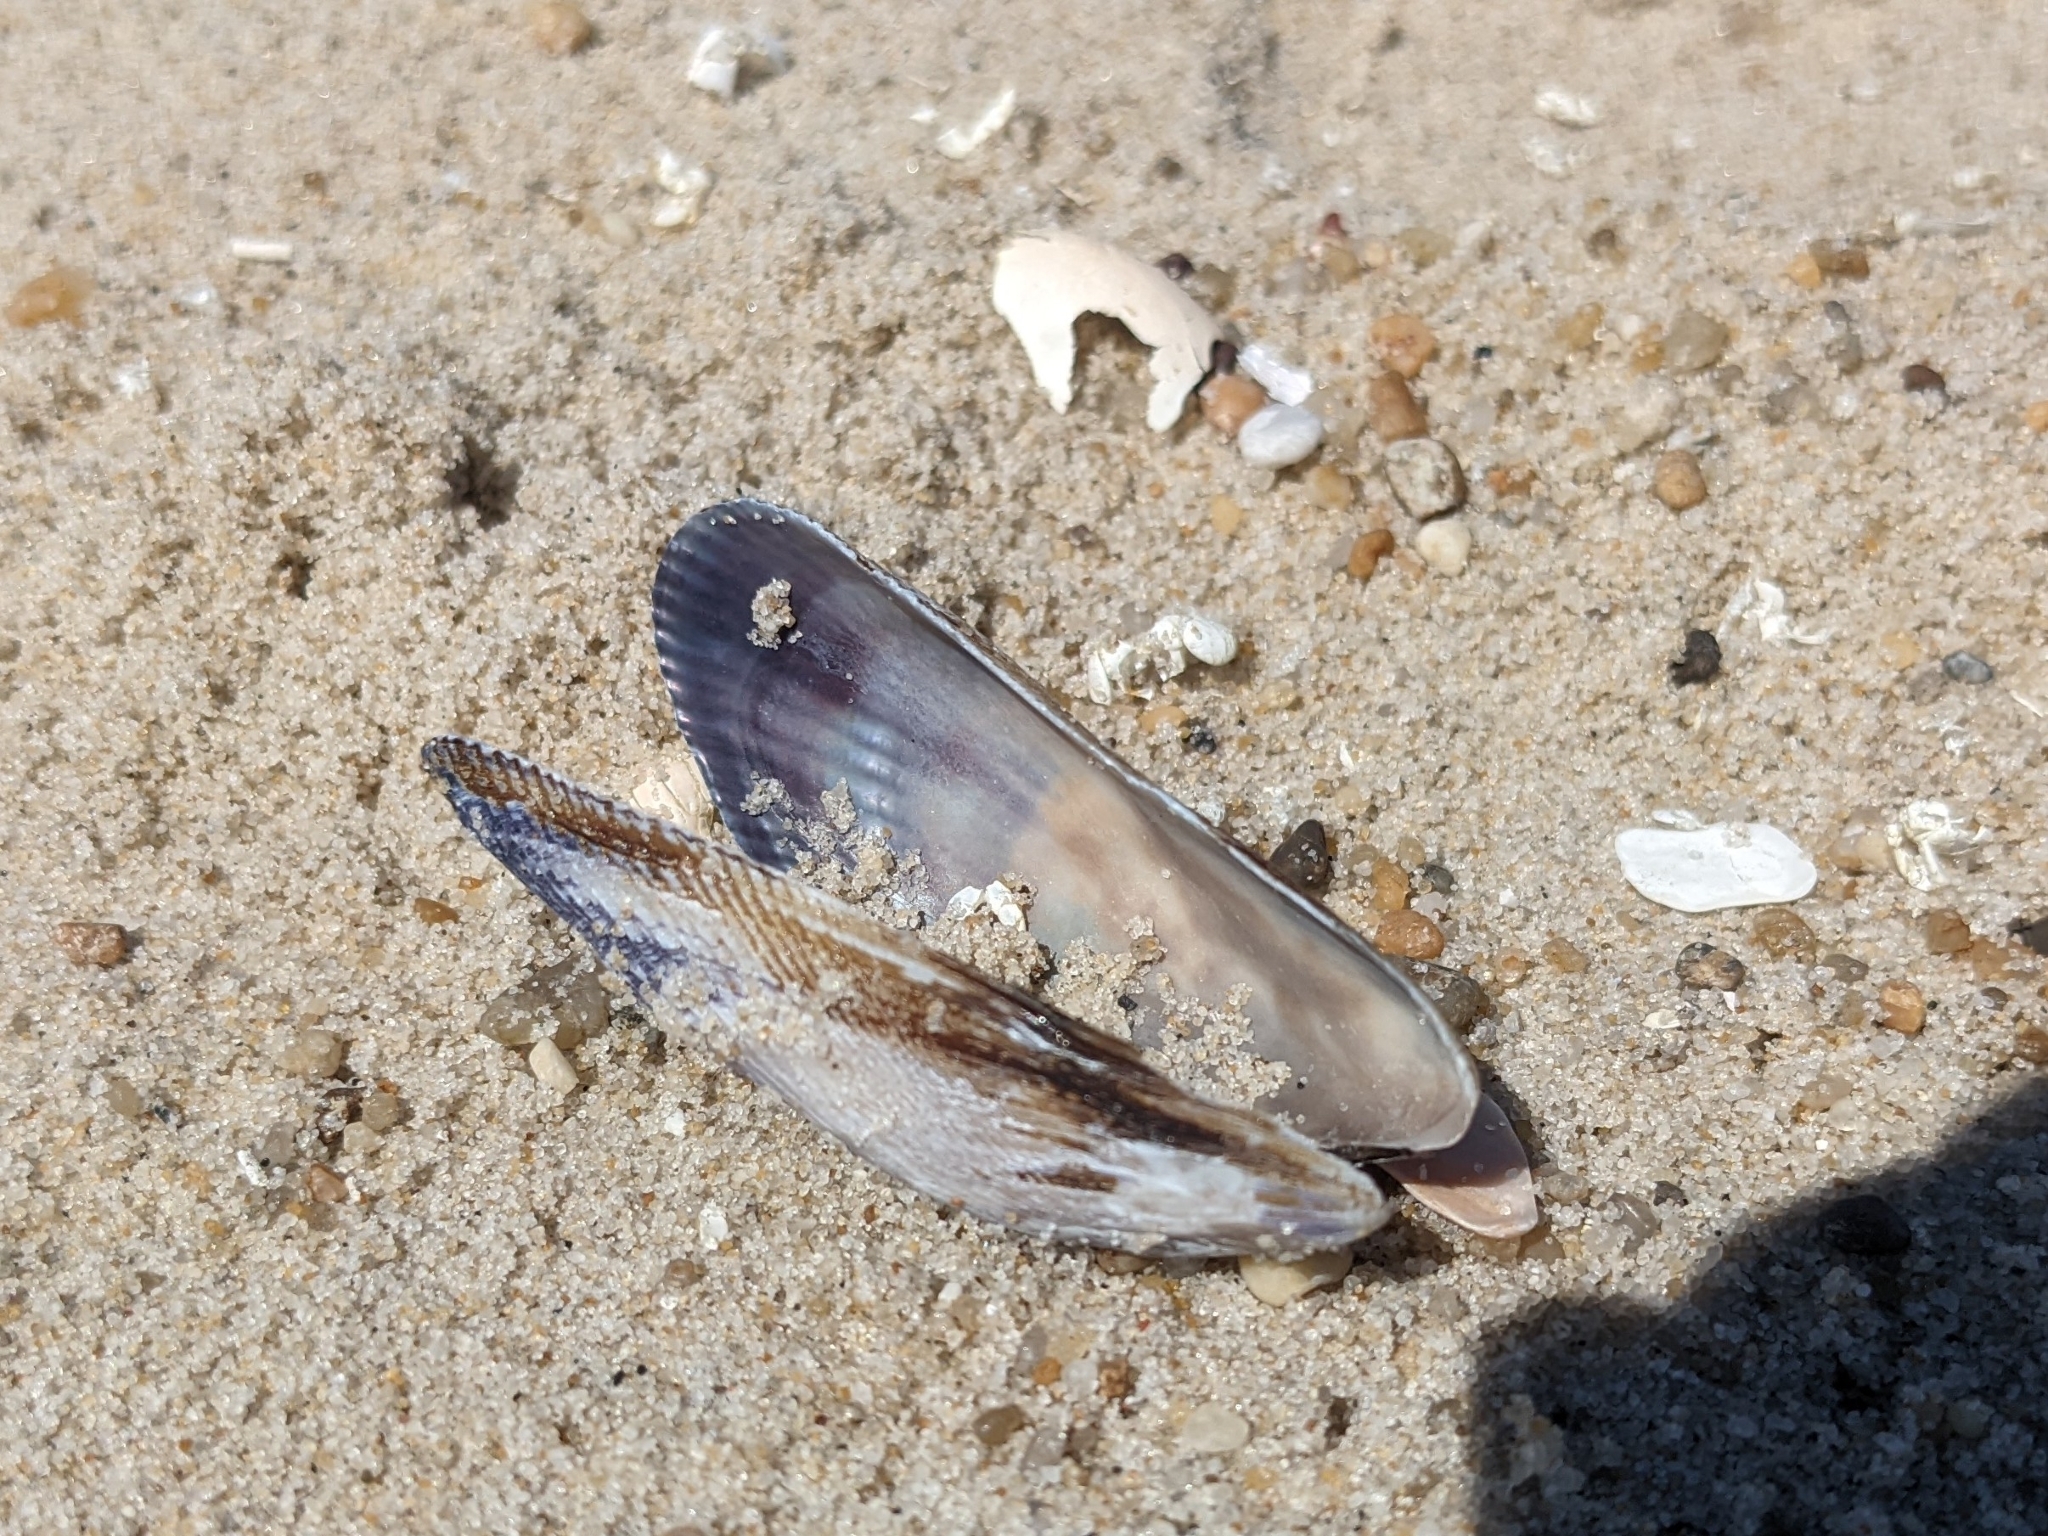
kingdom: Animalia
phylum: Mollusca
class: Bivalvia
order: Mytilida
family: Mytilidae
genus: Geukensia
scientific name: Geukensia demissa
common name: Ribbed mussel
